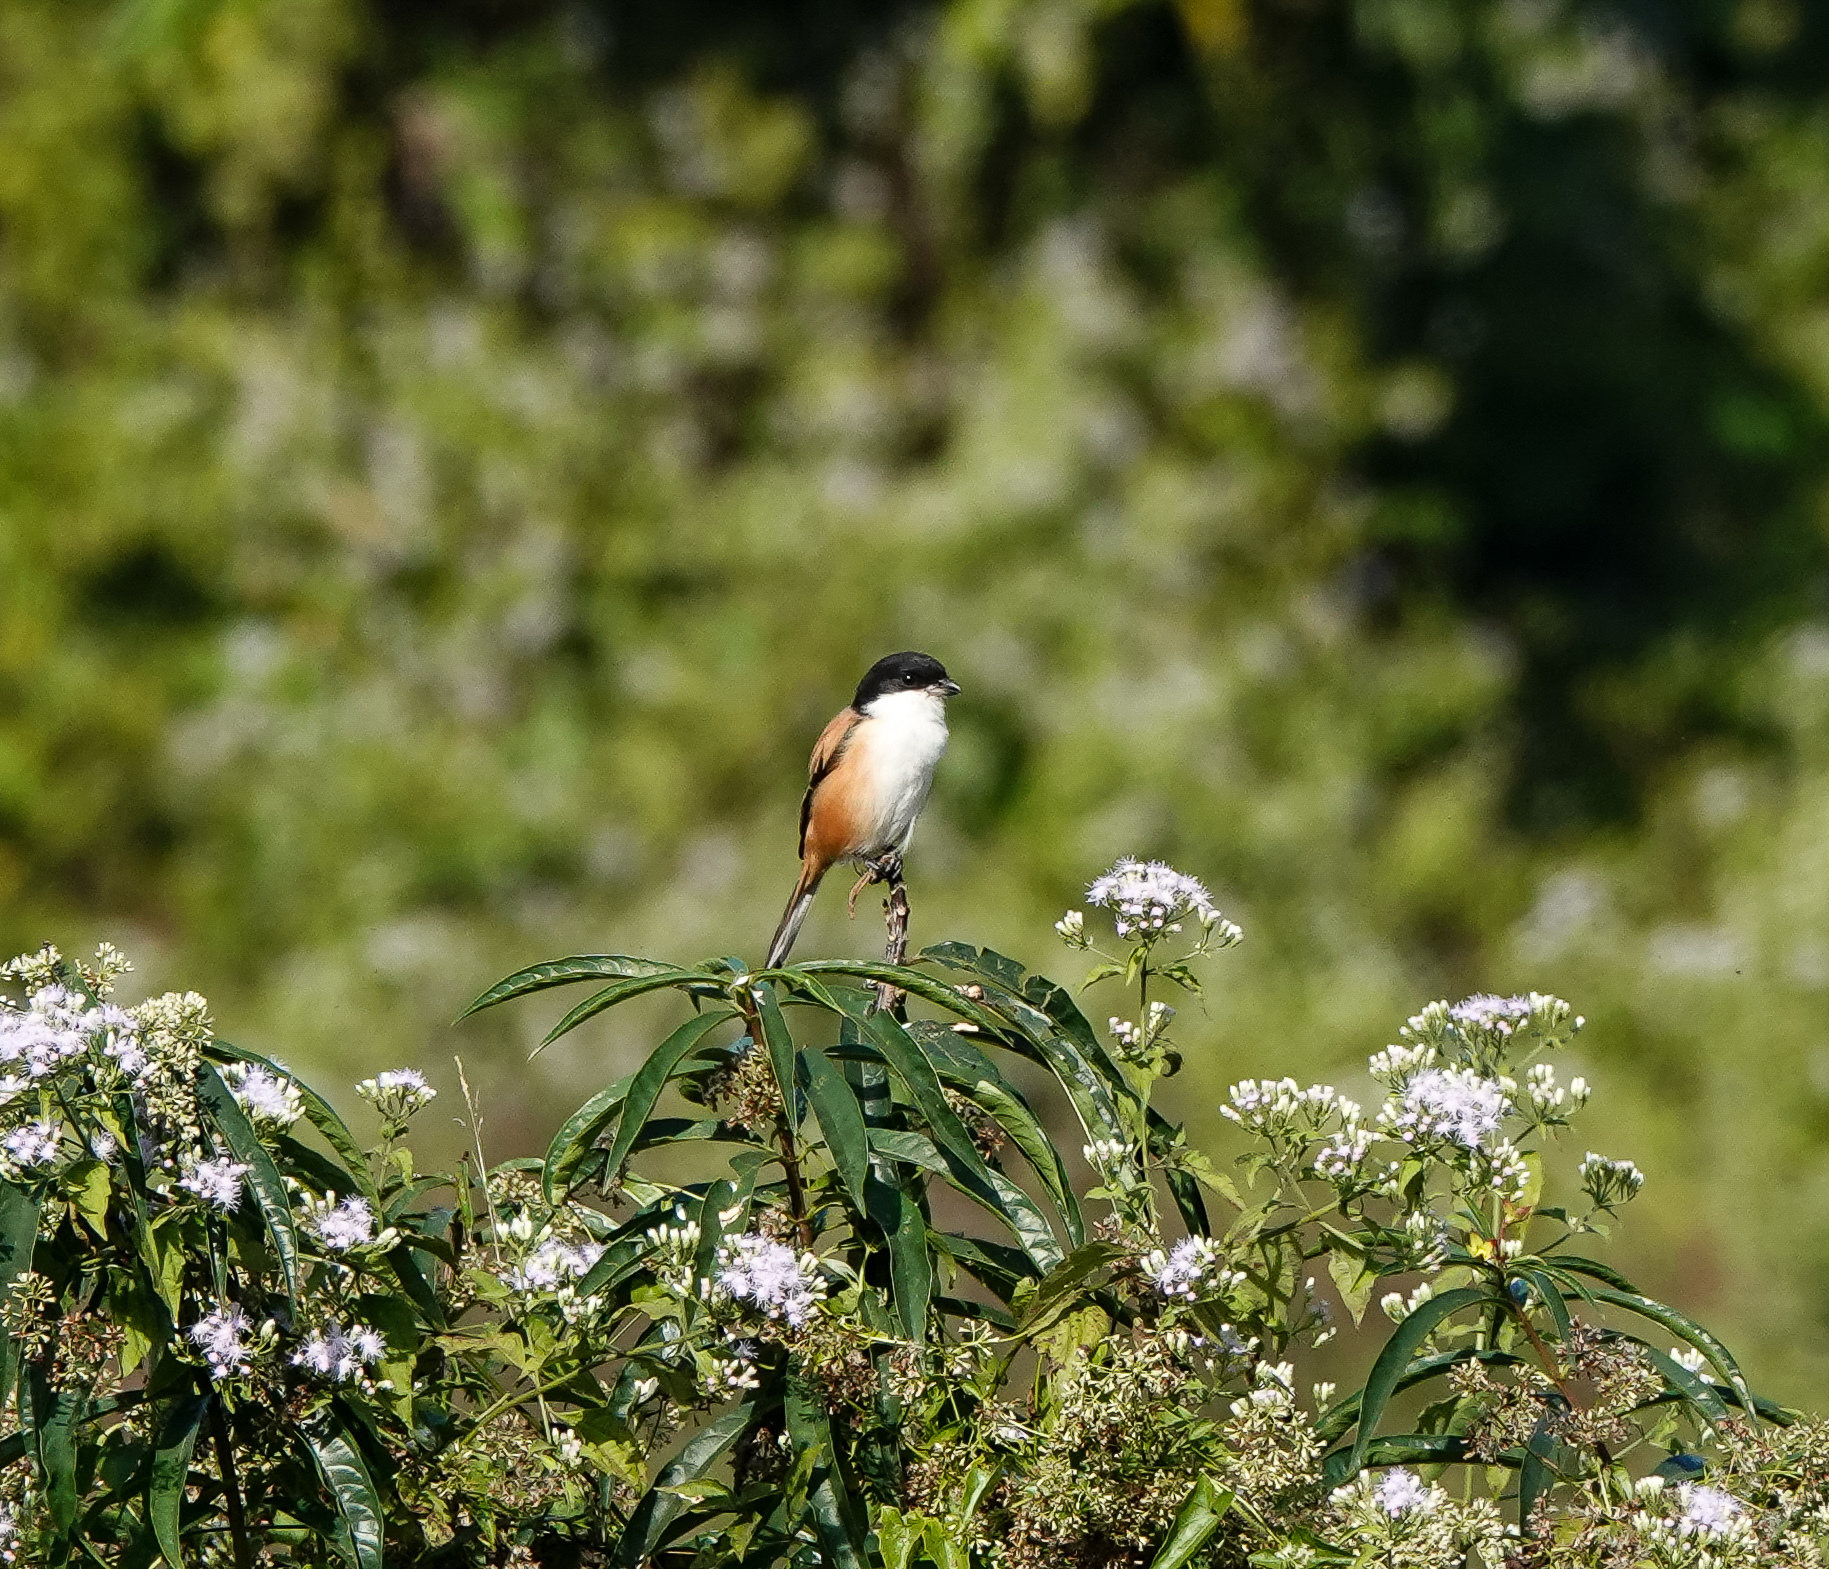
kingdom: Animalia
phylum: Chordata
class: Aves
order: Passeriformes
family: Laniidae
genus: Lanius
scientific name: Lanius schach
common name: Long-tailed shrike
